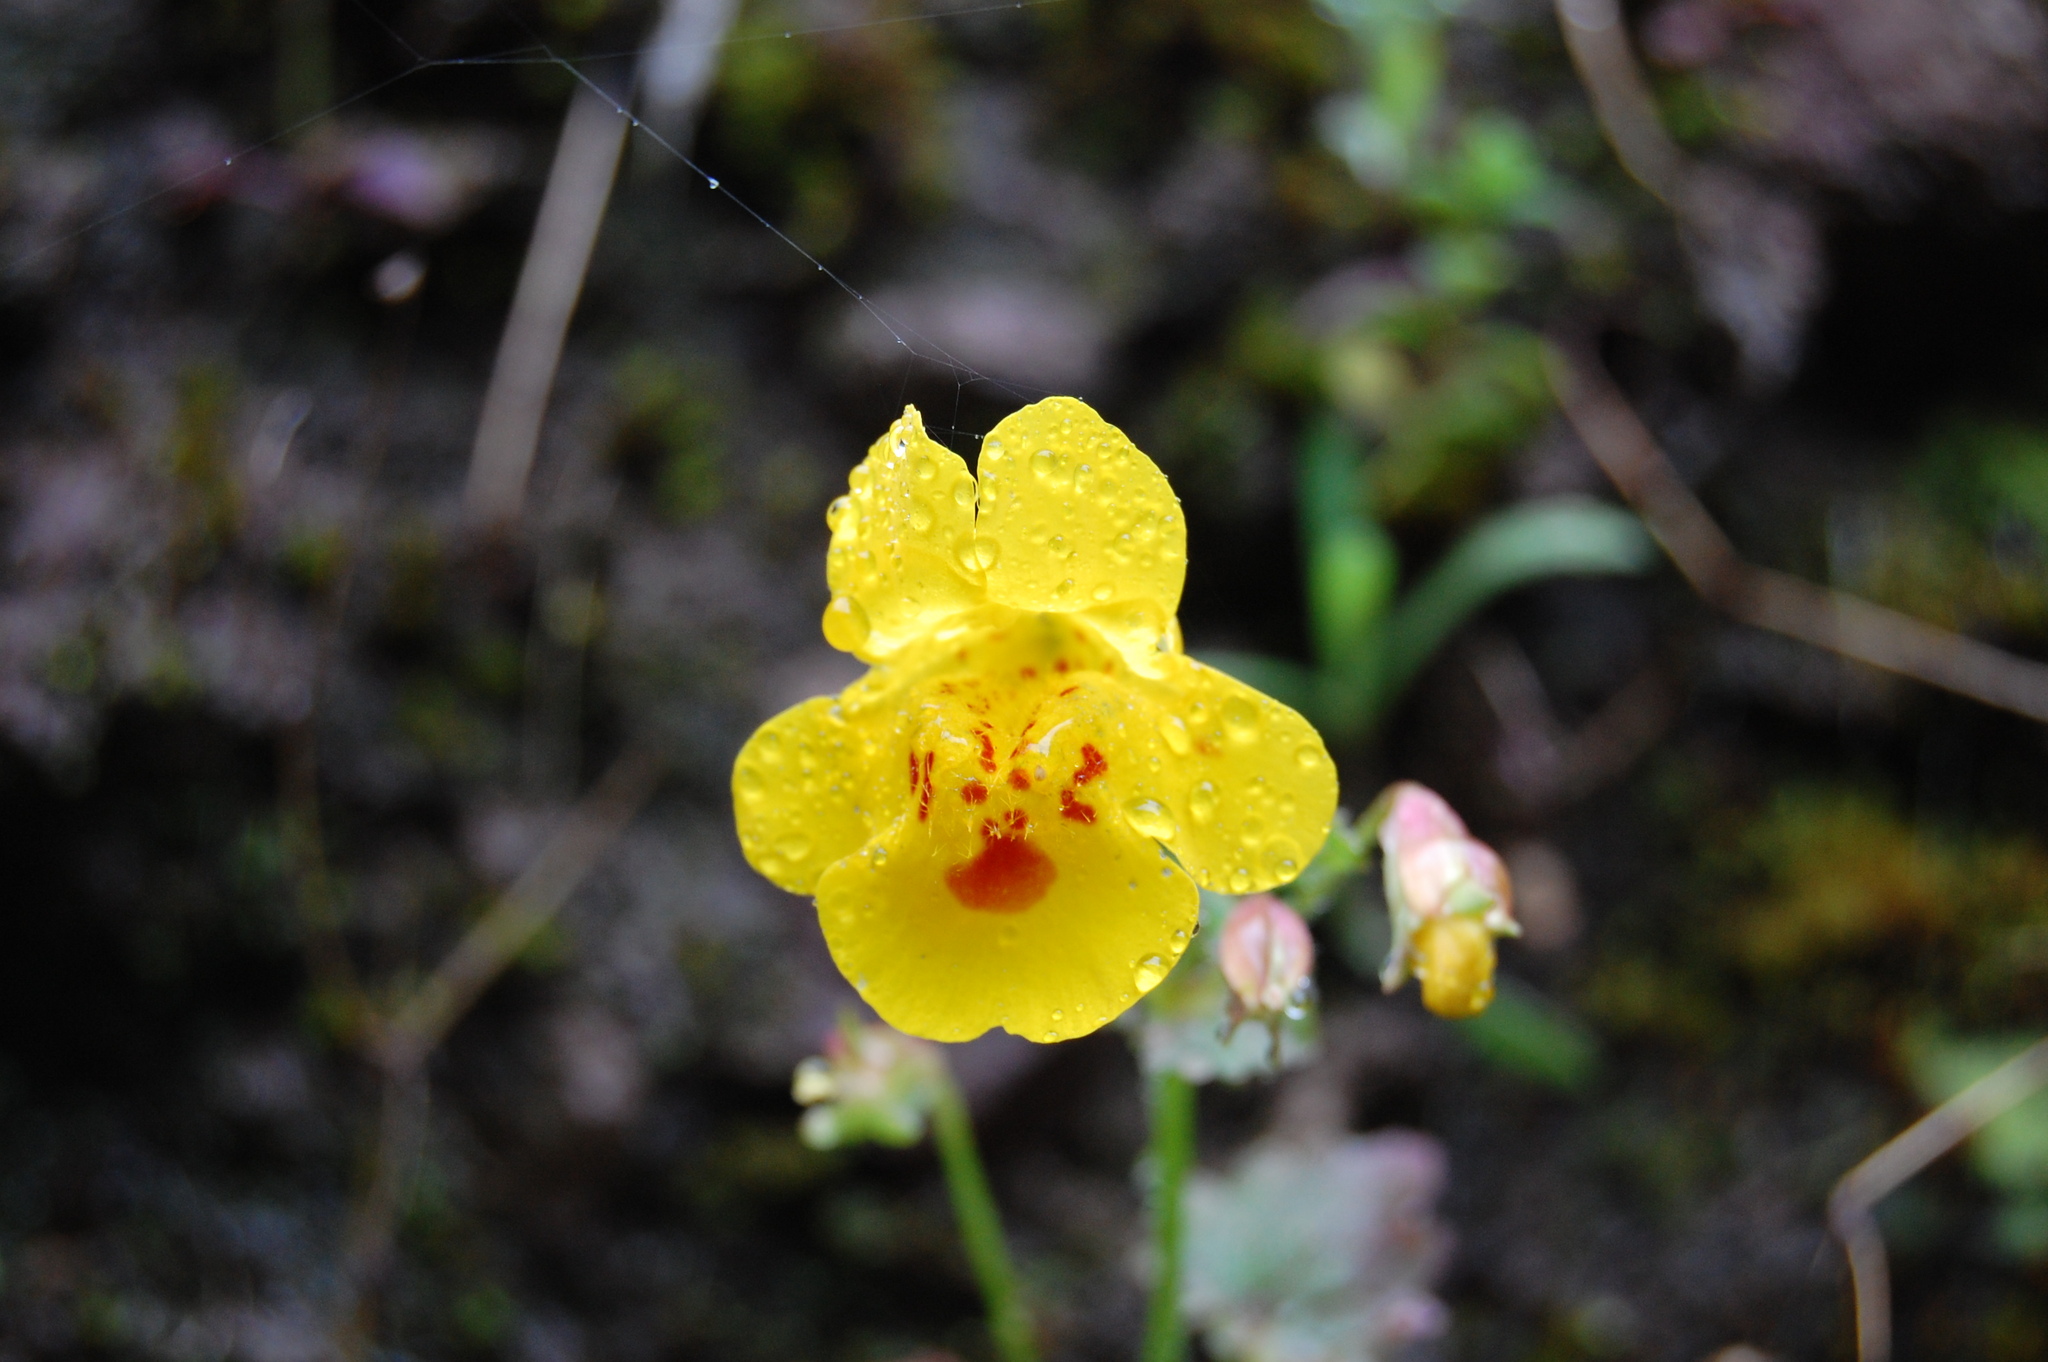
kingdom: Plantae
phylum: Tracheophyta
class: Magnoliopsida
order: Lamiales
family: Phrymaceae
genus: Erythranthe
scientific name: Erythranthe guttata
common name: Monkeyflower
